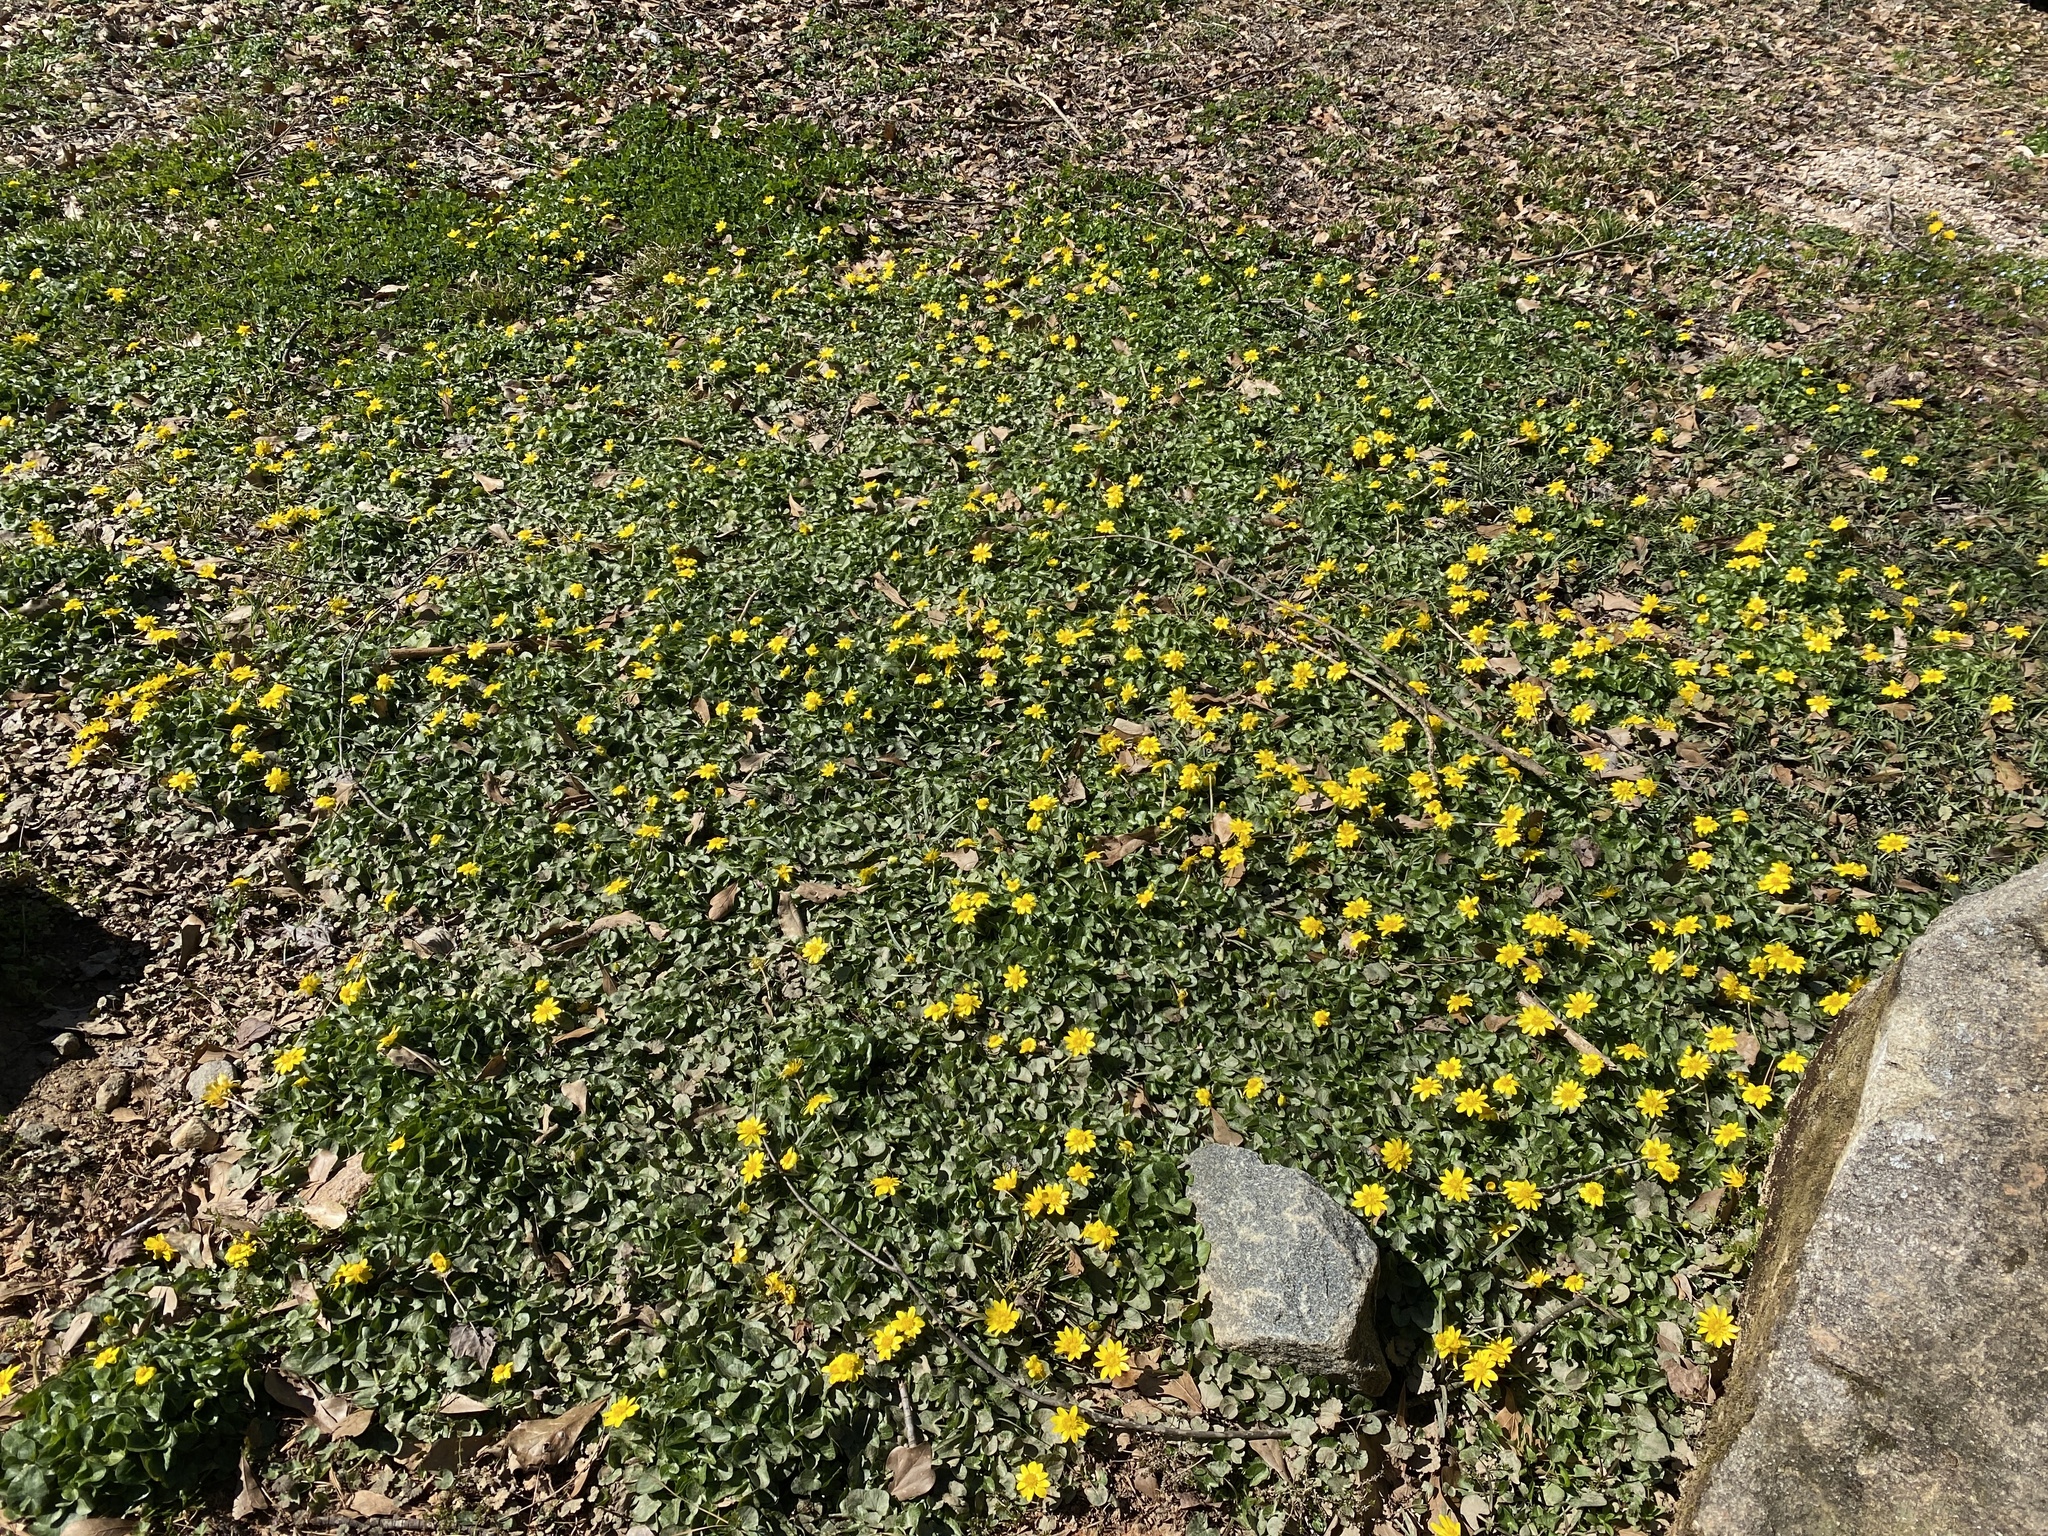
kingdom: Plantae
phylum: Tracheophyta
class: Magnoliopsida
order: Ranunculales
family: Ranunculaceae
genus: Ficaria
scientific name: Ficaria verna
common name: Lesser celandine
